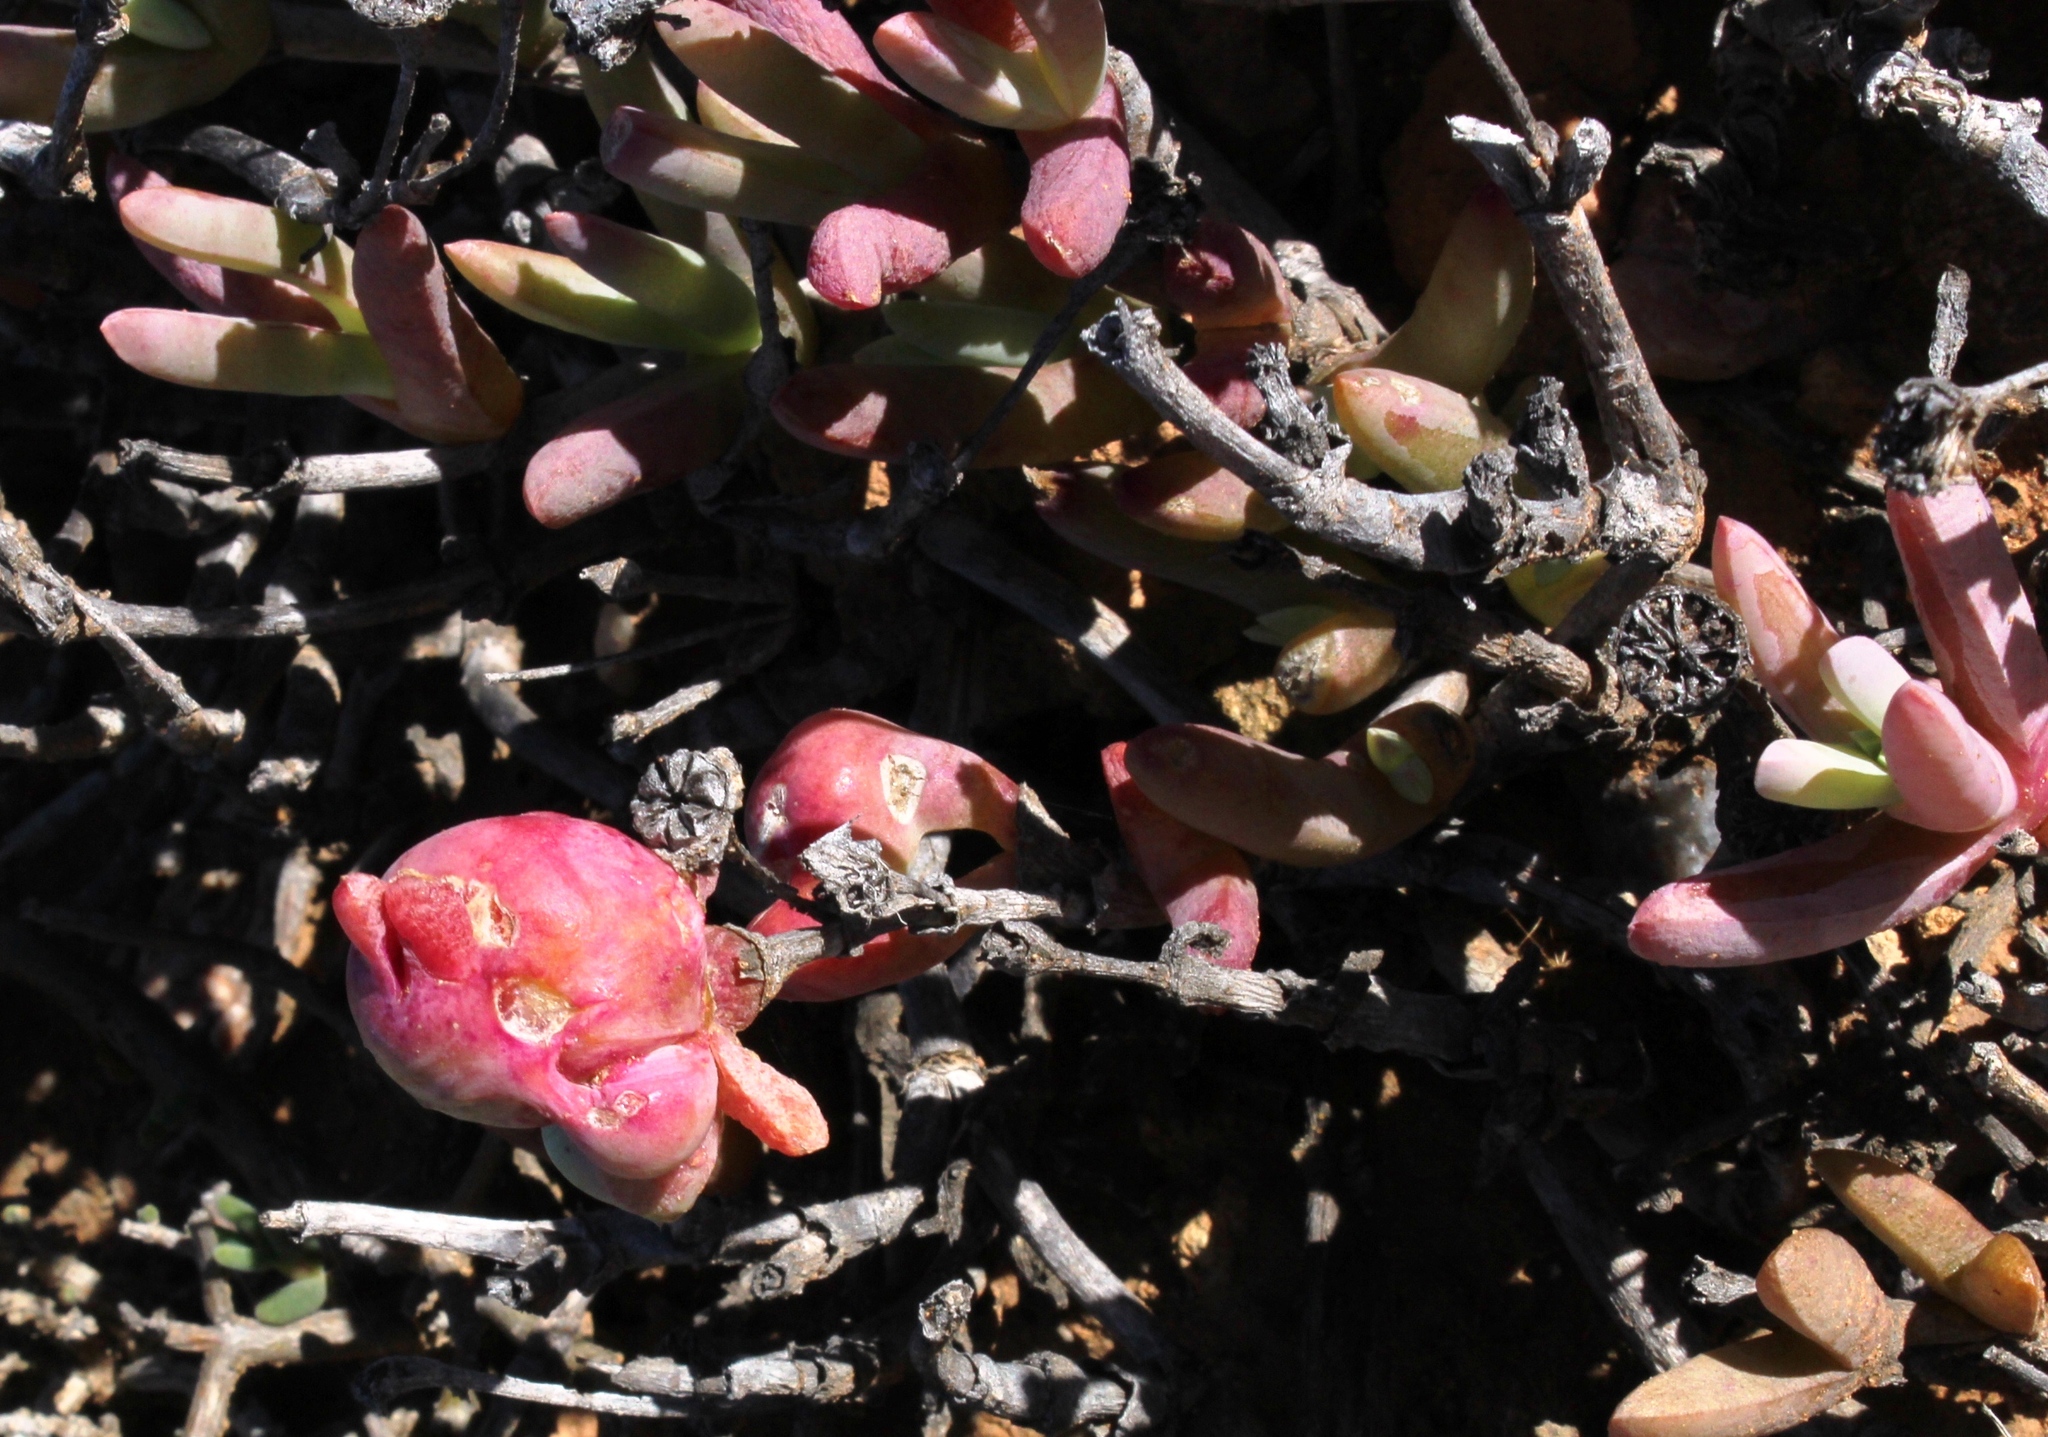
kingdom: Plantae
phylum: Tracheophyta
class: Magnoliopsida
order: Caryophyllales
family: Aizoaceae
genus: Malephora
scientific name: Malephora purpureocrocea
